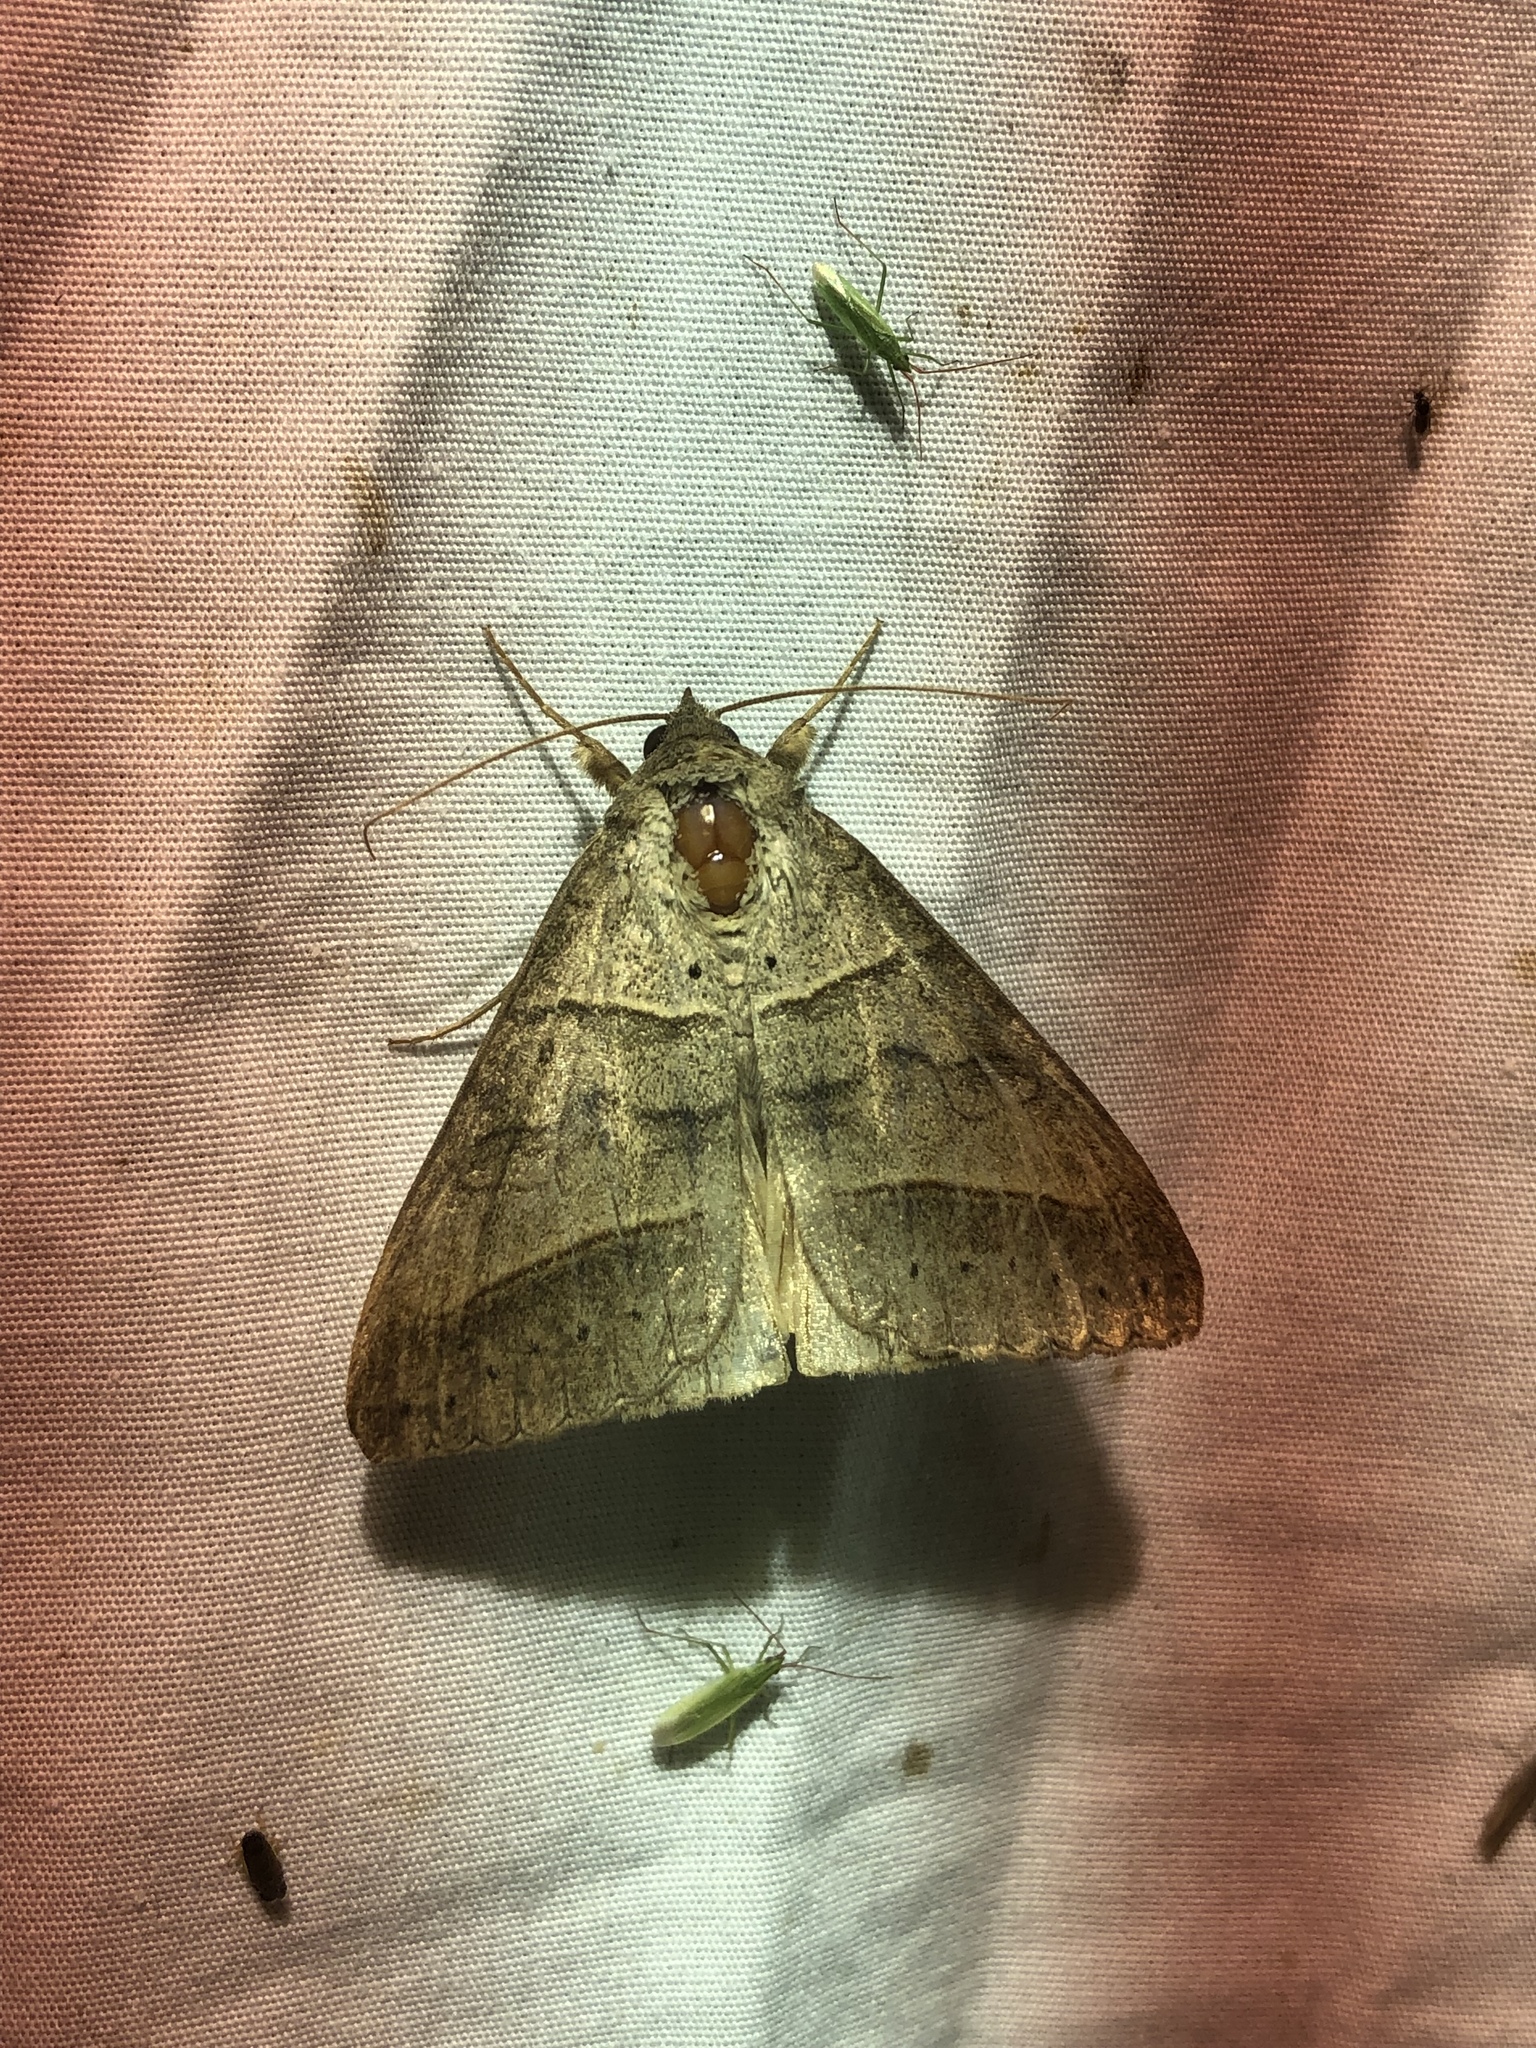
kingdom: Animalia
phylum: Arthropoda
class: Insecta
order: Lepidoptera
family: Erebidae
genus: Mocis
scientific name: Mocis marcida
